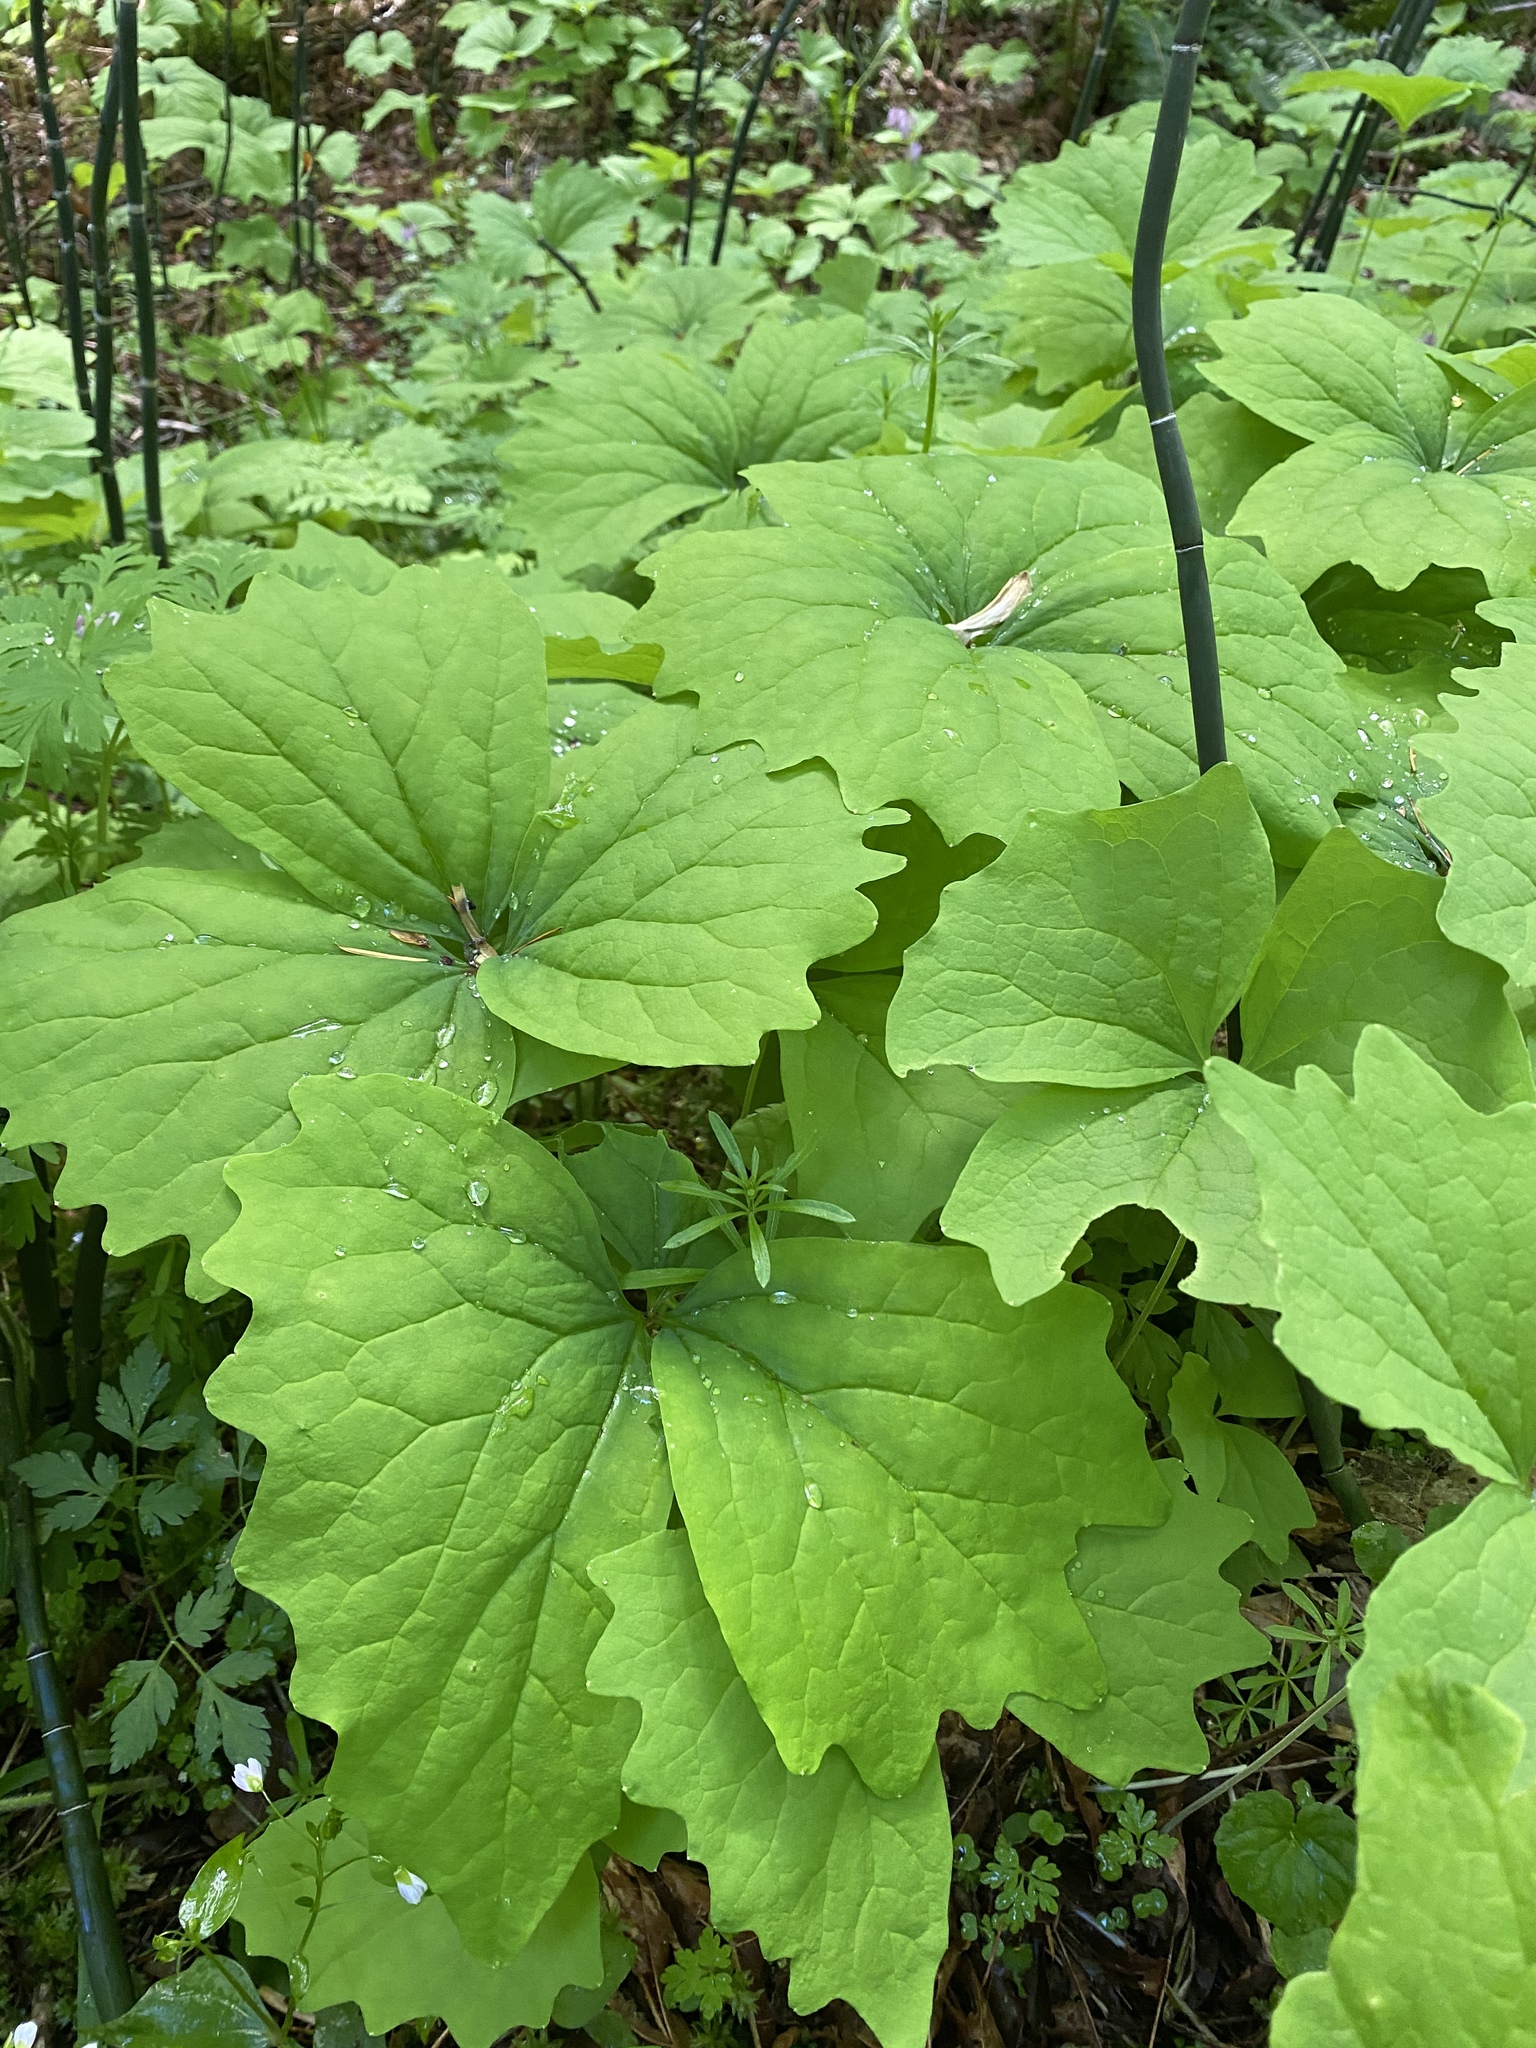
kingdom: Plantae
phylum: Tracheophyta
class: Magnoliopsida
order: Ranunculales
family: Berberidaceae
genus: Achlys
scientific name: Achlys triphylla
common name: Vanilla-leaf
